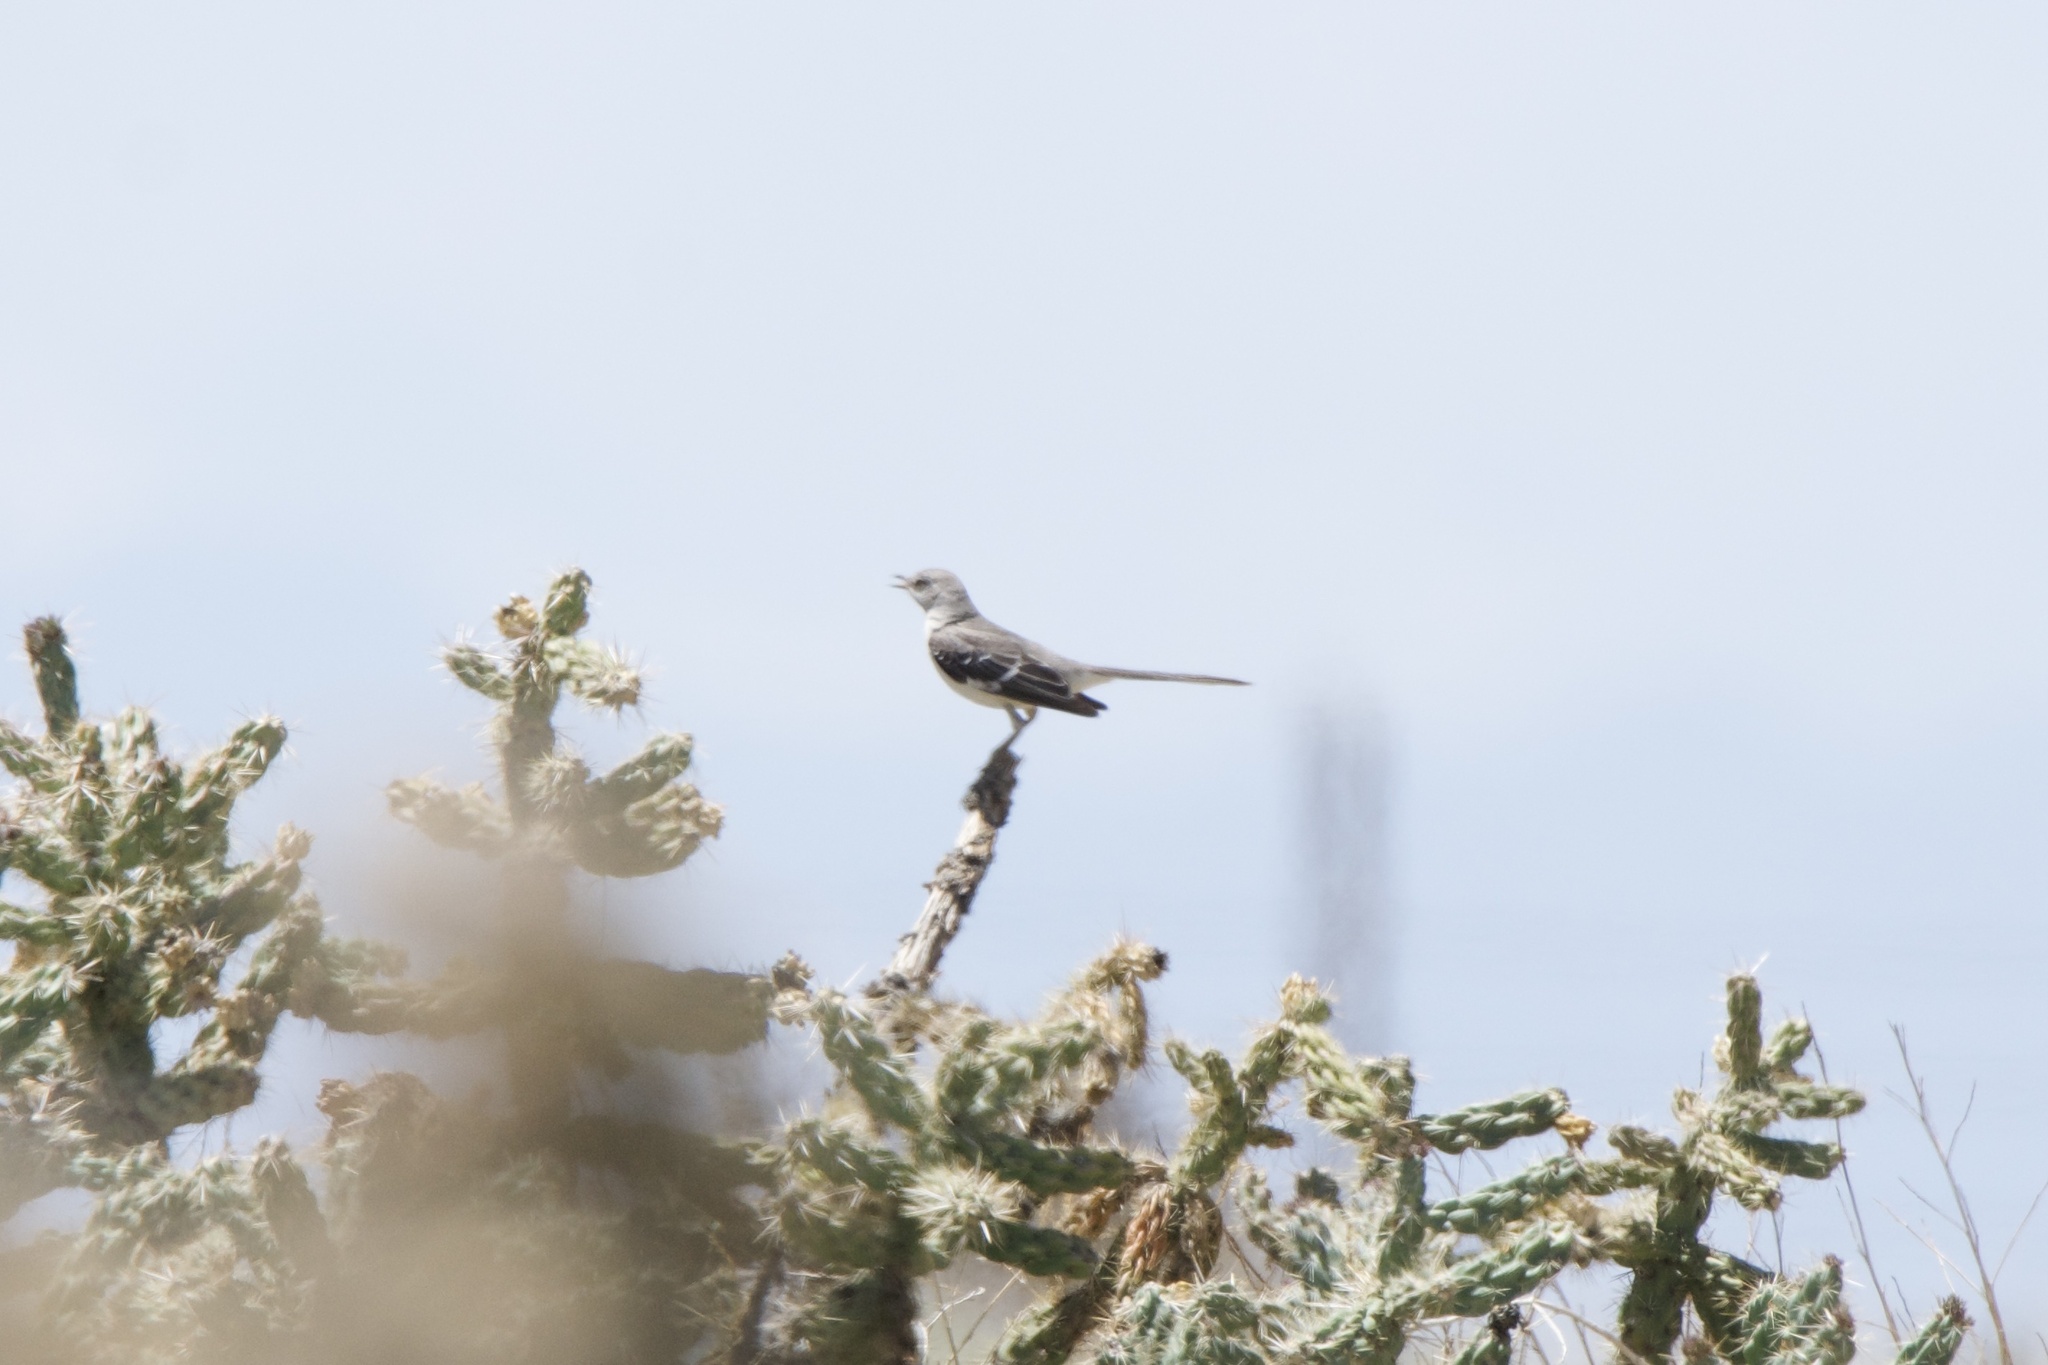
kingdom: Animalia
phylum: Chordata
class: Aves
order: Passeriformes
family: Mimidae
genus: Mimus
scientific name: Mimus polyglottos
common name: Northern mockingbird
